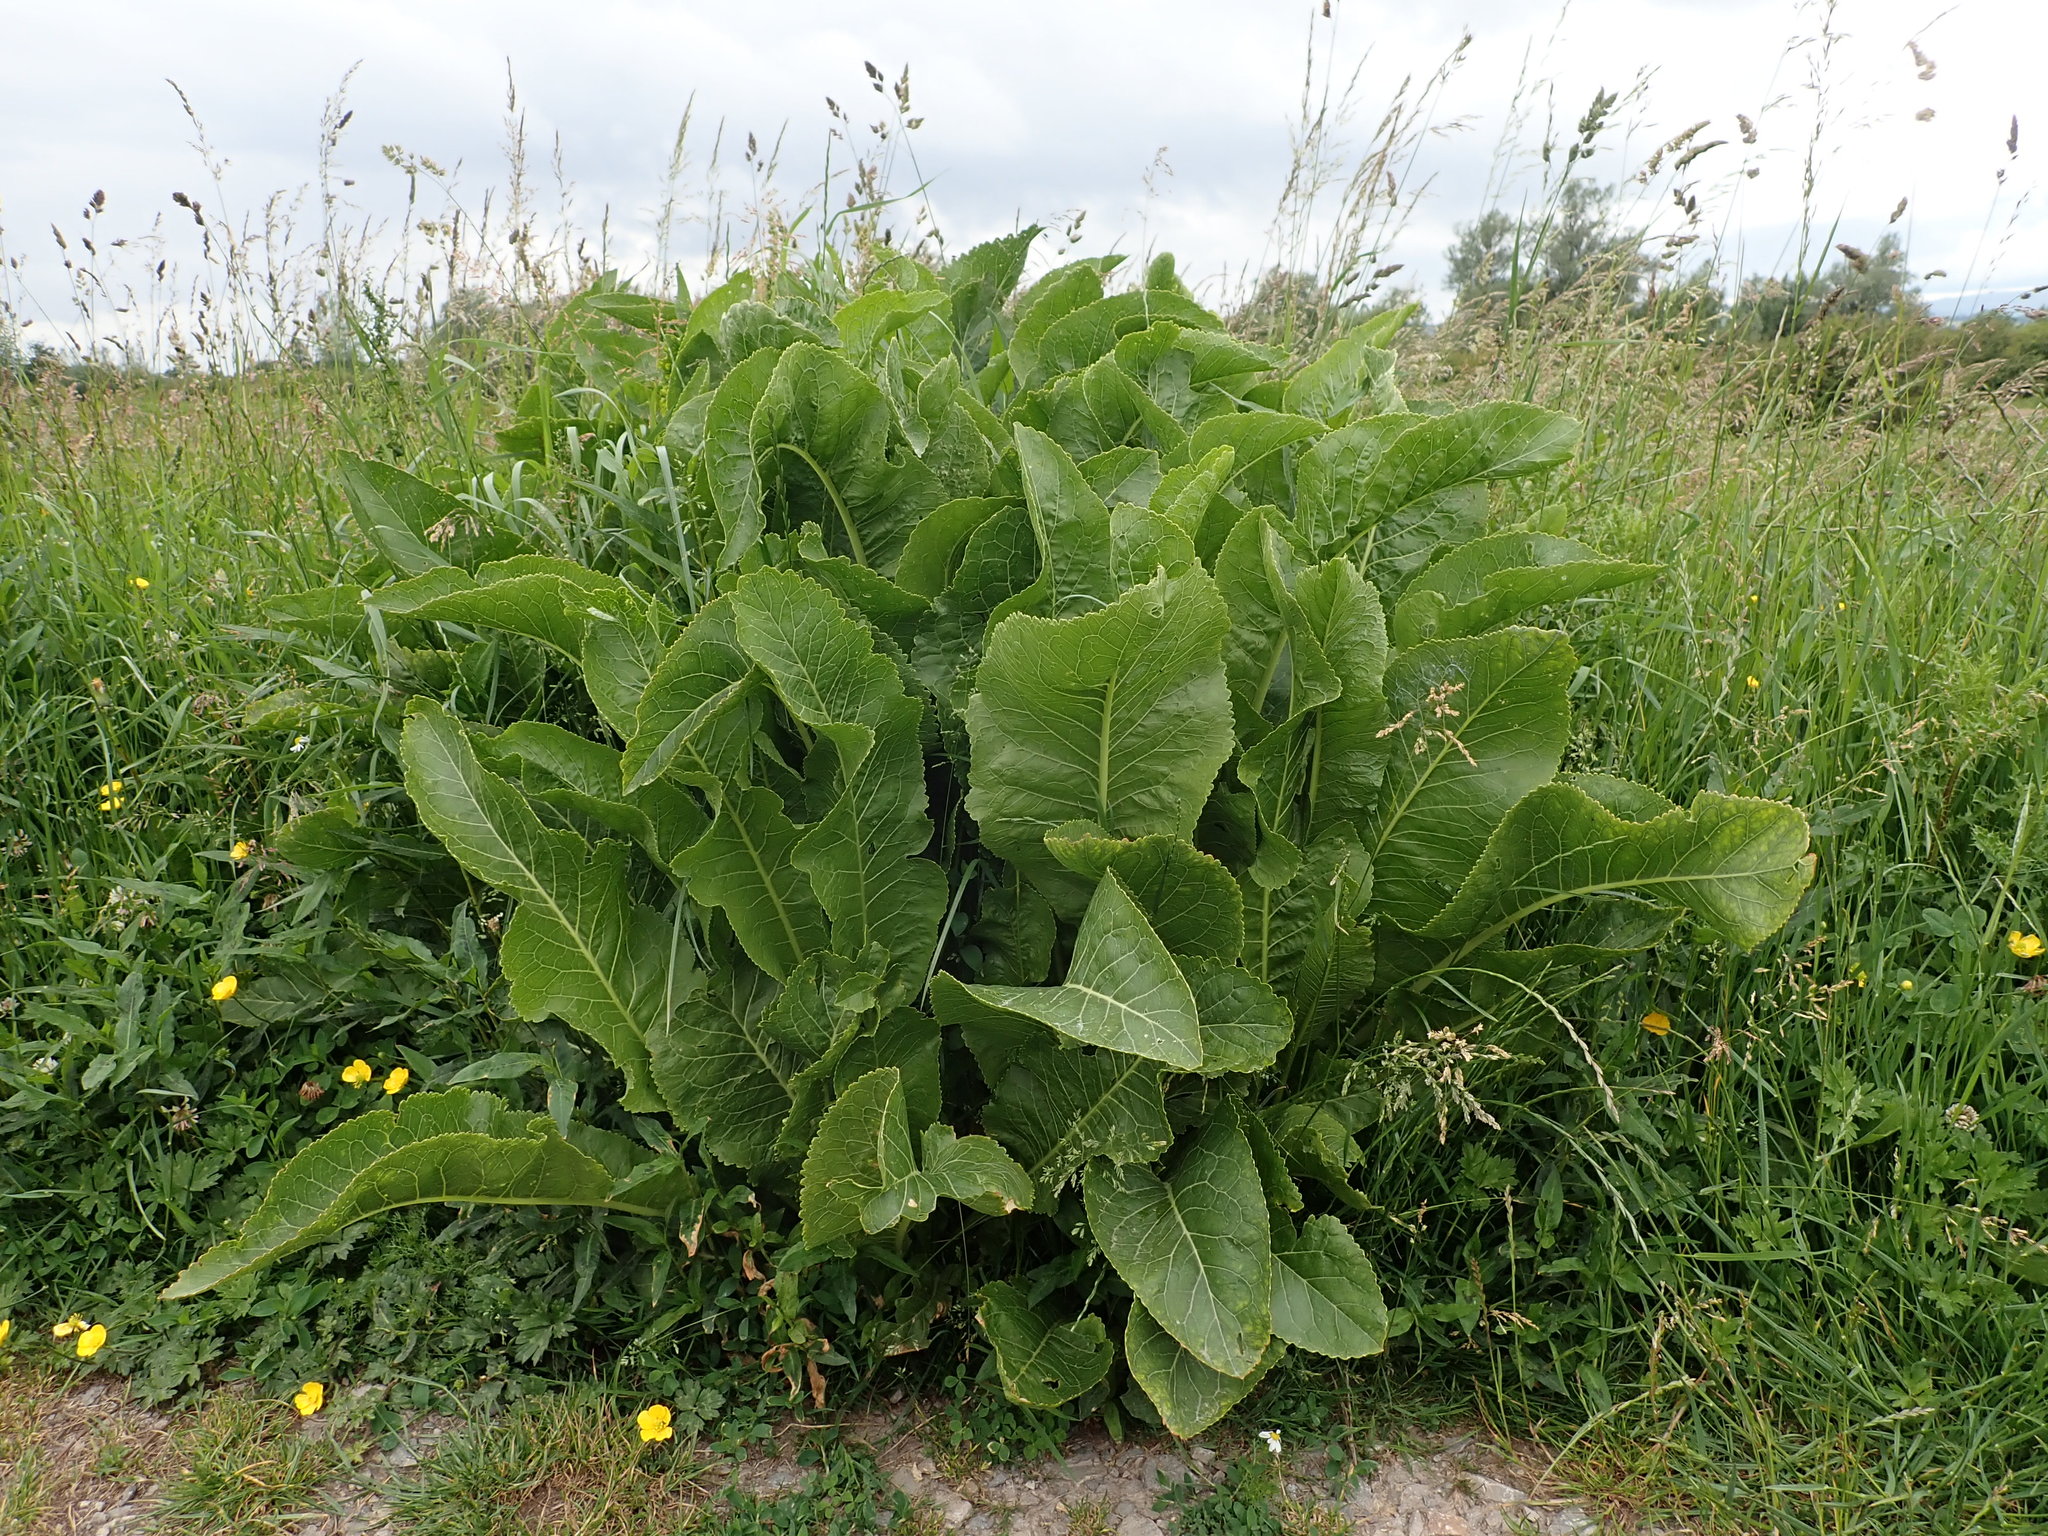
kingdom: Plantae
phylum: Tracheophyta
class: Magnoliopsida
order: Brassicales
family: Brassicaceae
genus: Armoracia
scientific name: Armoracia rusticana
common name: Horseradish
